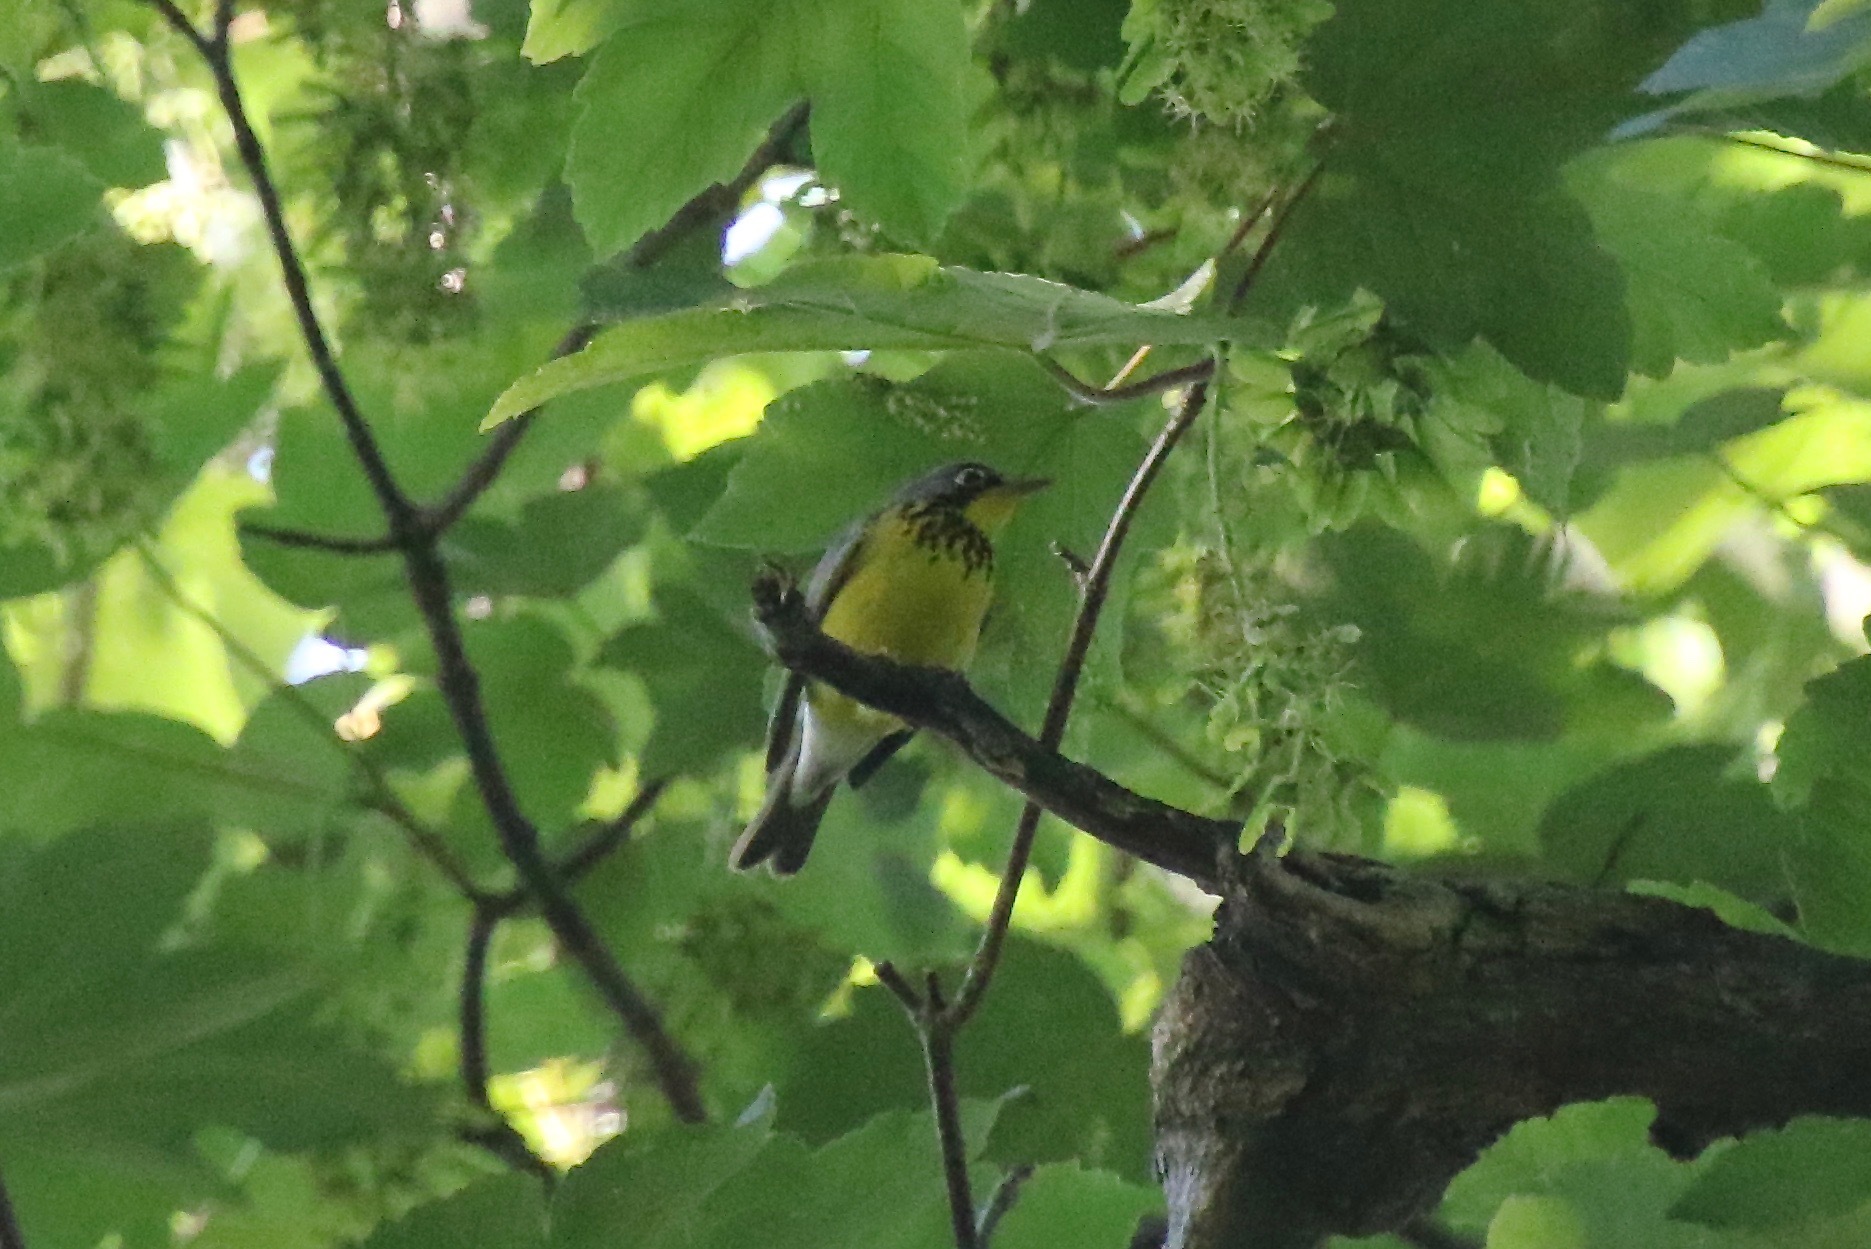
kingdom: Animalia
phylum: Chordata
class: Aves
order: Passeriformes
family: Parulidae
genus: Cardellina
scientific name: Cardellina canadensis
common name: Canada warbler
